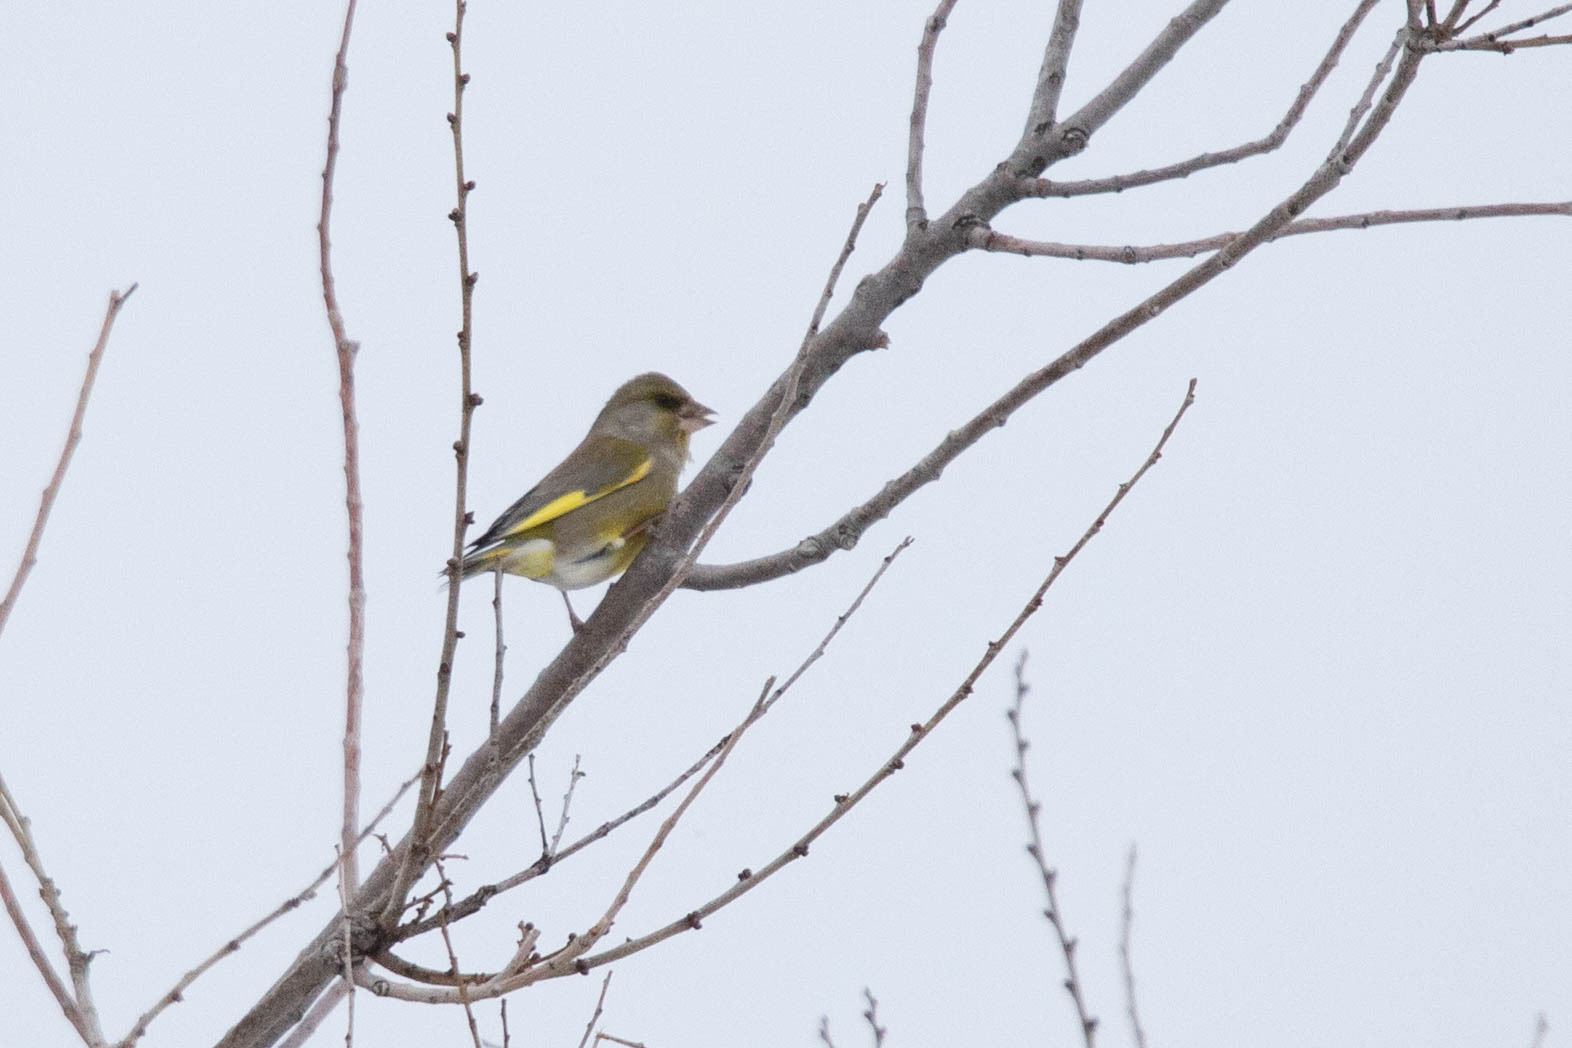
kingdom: Plantae
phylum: Tracheophyta
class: Liliopsida
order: Poales
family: Poaceae
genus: Chloris
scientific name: Chloris chloris
